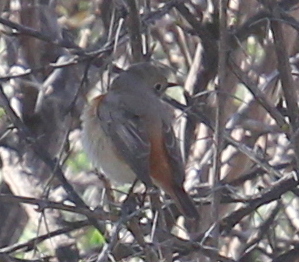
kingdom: Animalia
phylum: Chordata
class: Aves
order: Passeriformes
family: Muscicapidae
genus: Phoenicurus
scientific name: Phoenicurus phoenicurus
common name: Common redstart
